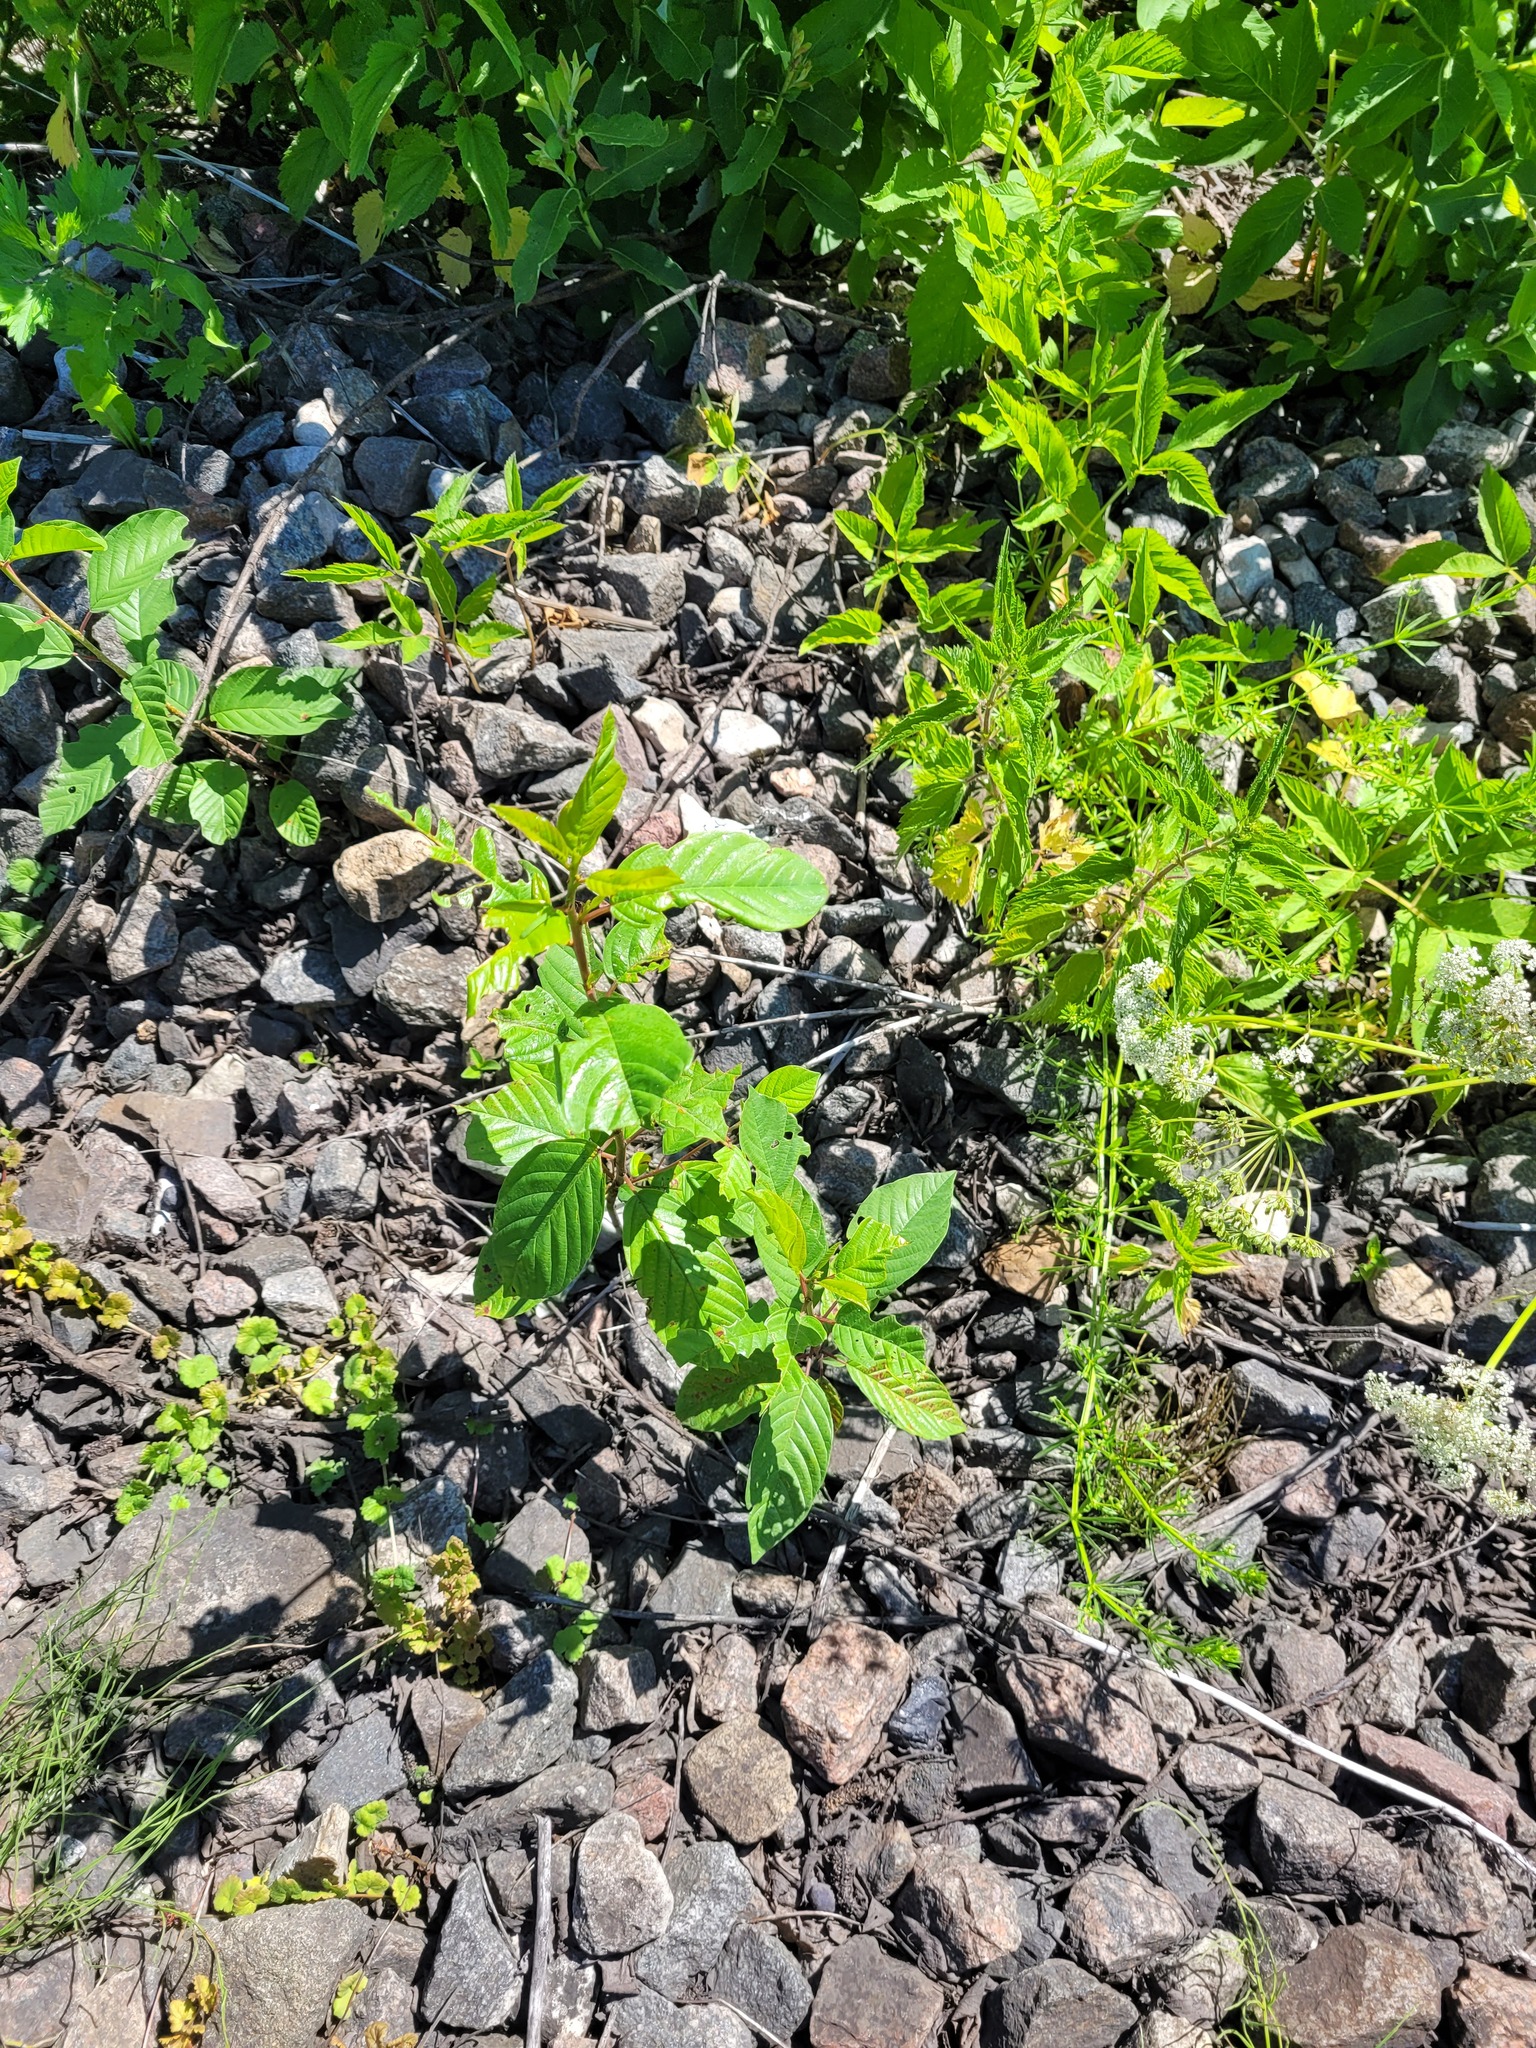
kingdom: Plantae
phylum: Tracheophyta
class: Magnoliopsida
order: Rosales
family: Rhamnaceae
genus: Frangula
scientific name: Frangula alnus
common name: Alder buckthorn
